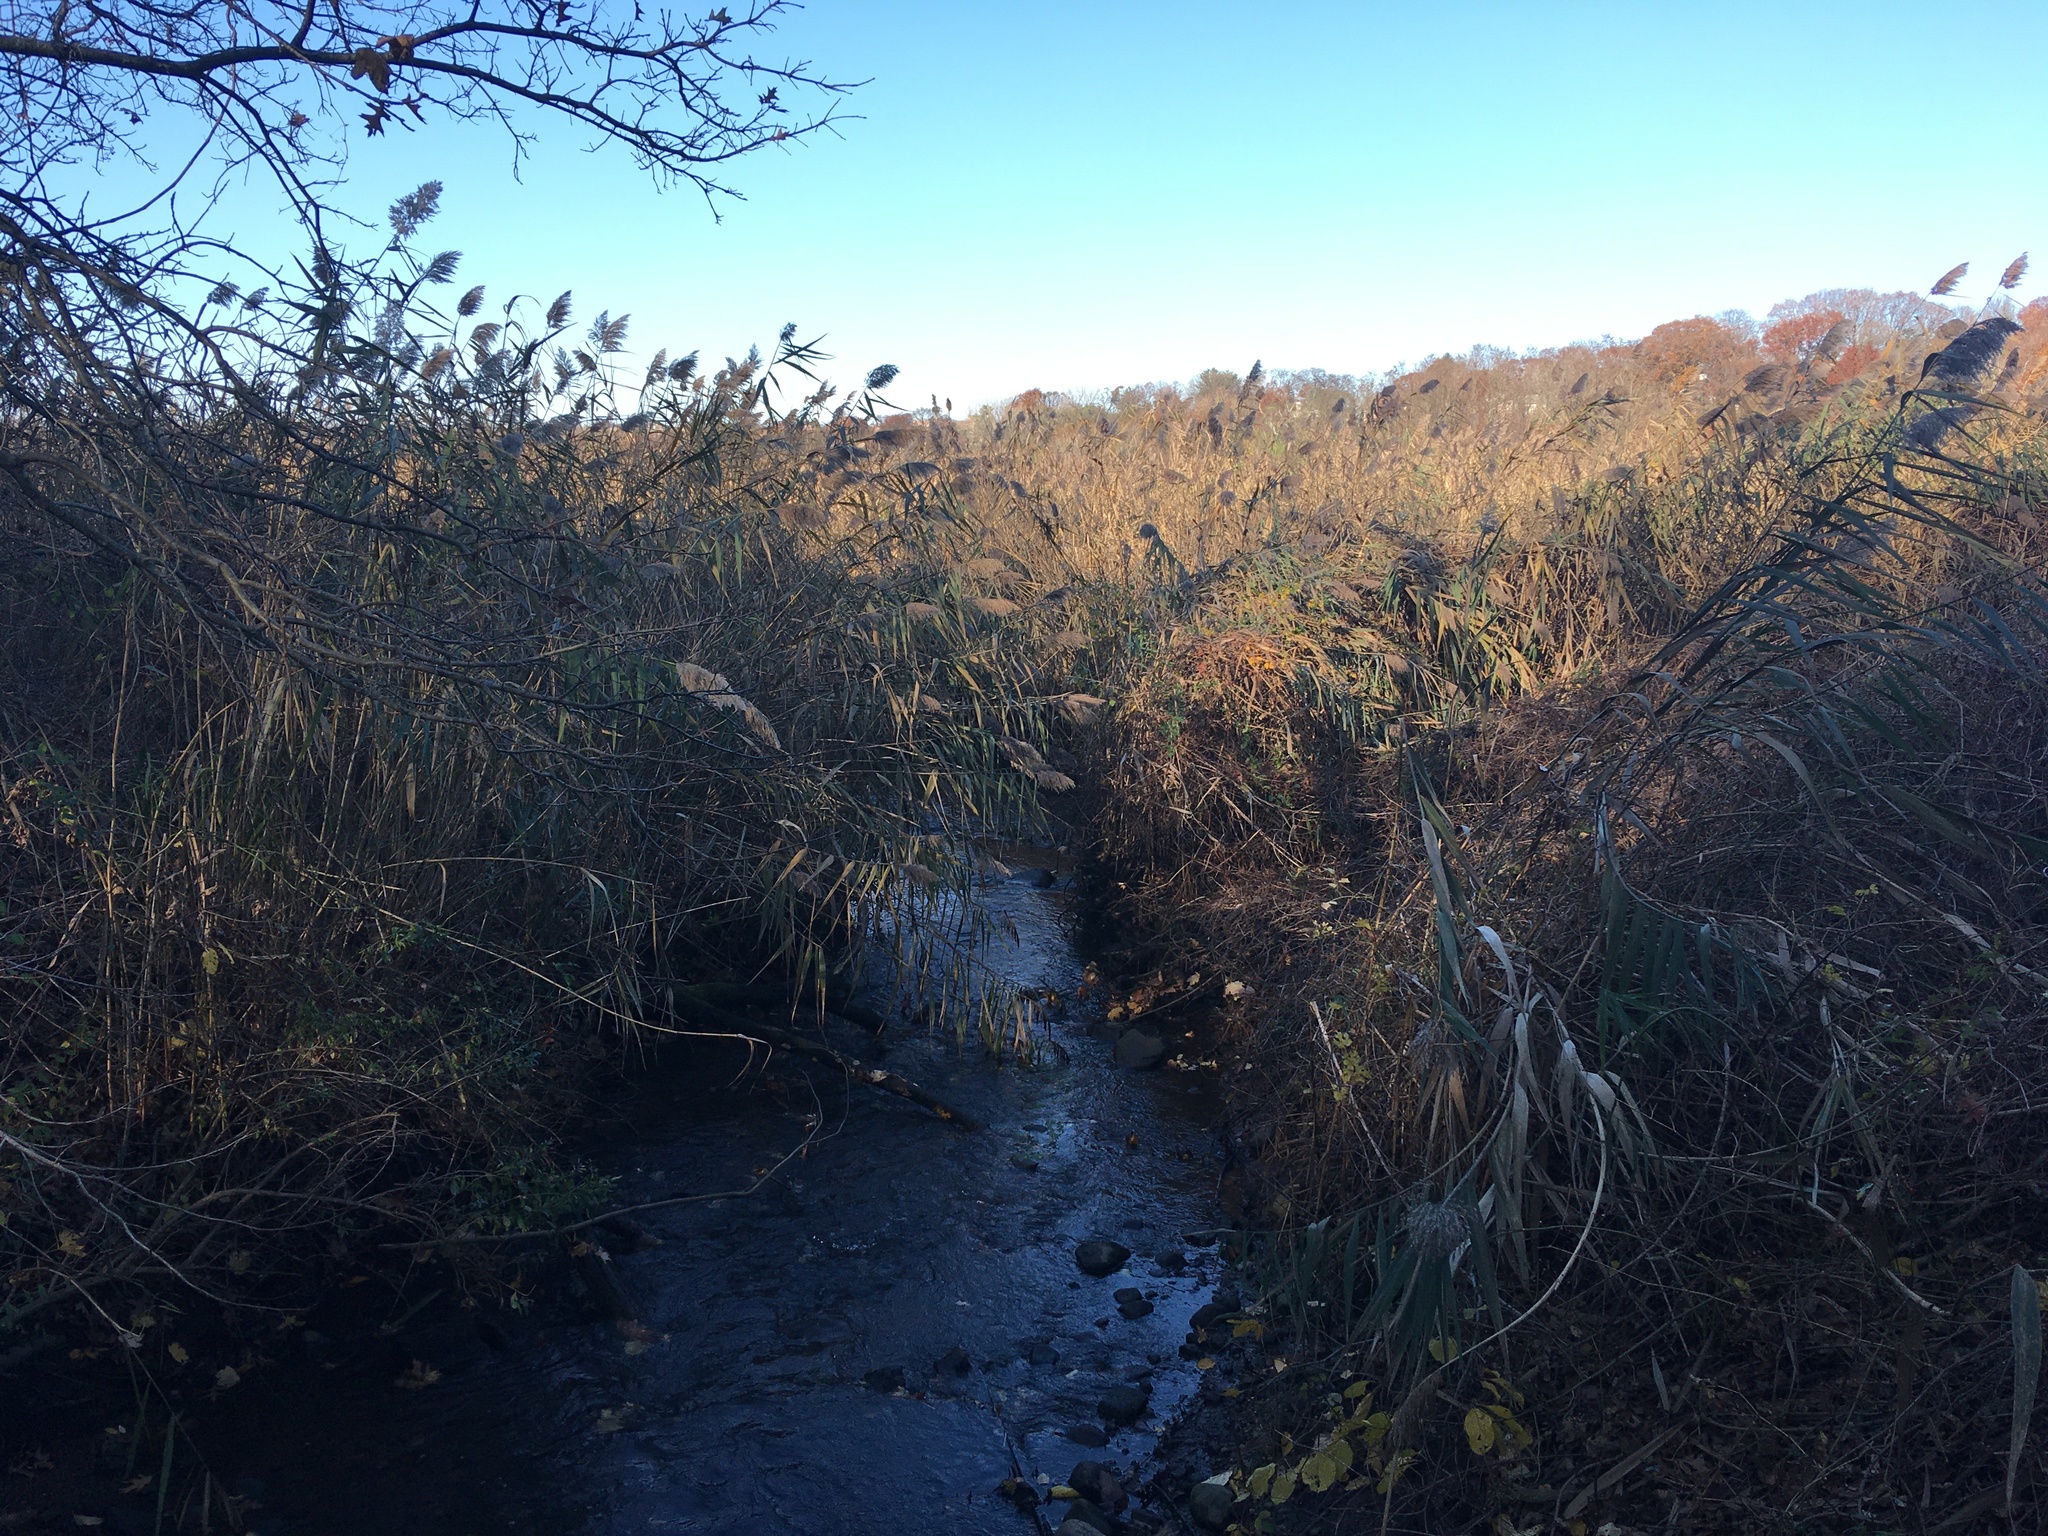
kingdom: Plantae
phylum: Tracheophyta
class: Liliopsida
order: Poales
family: Poaceae
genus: Phragmites
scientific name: Phragmites australis
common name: Common reed
